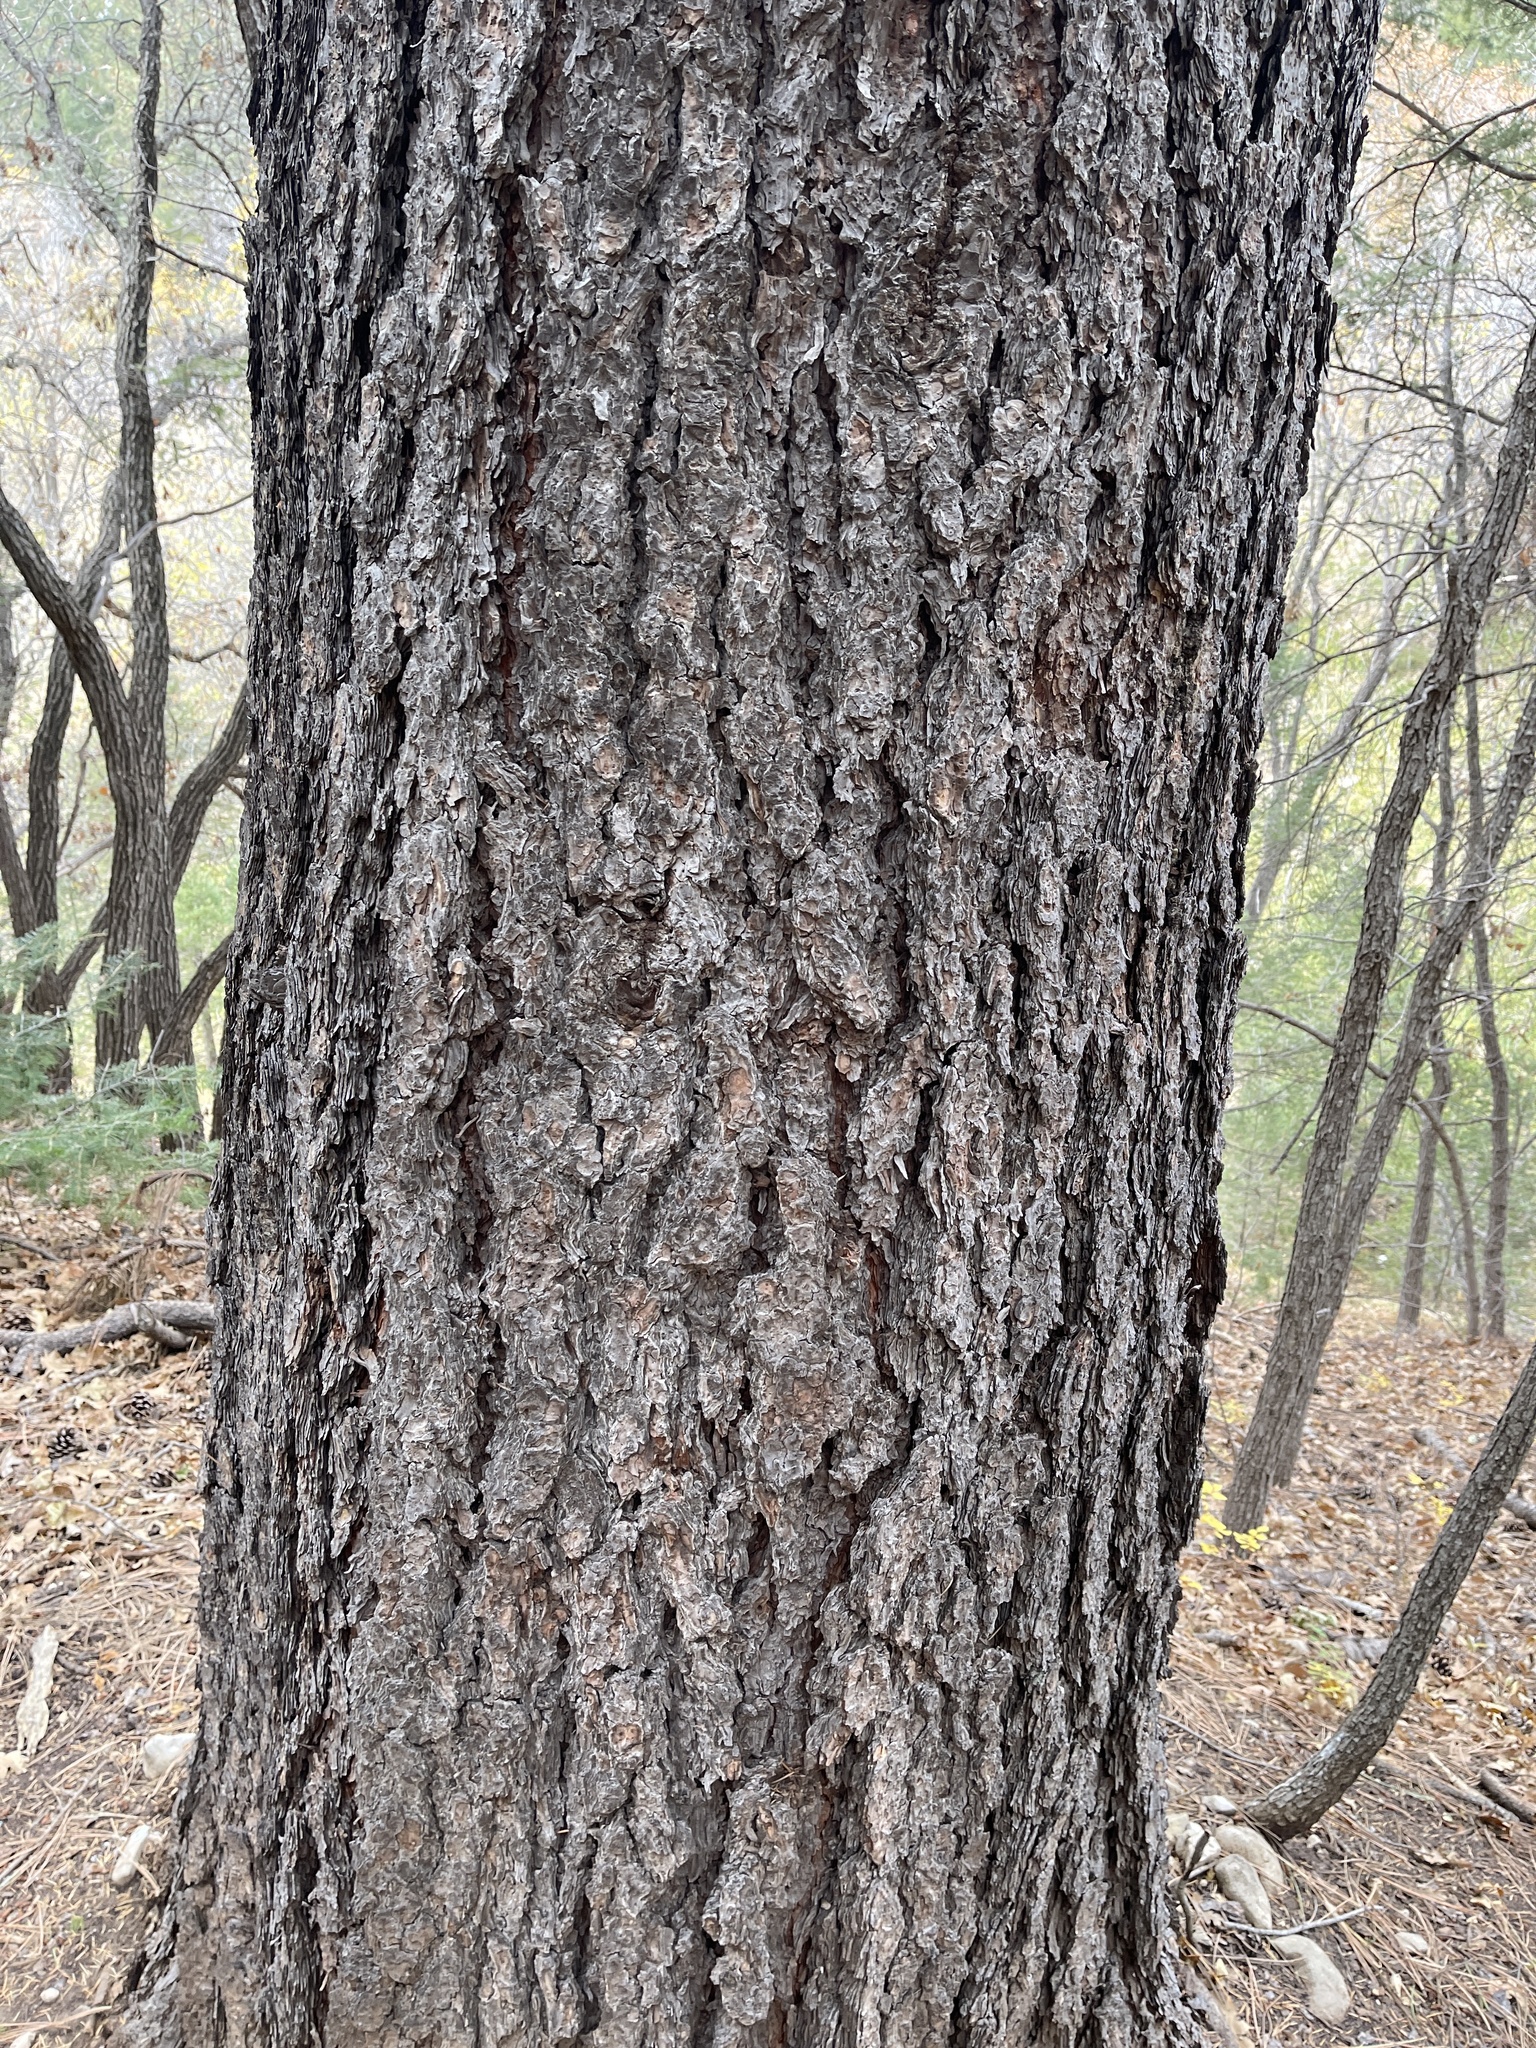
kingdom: Plantae
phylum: Tracheophyta
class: Pinopsida
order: Pinales
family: Pinaceae
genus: Pinus
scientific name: Pinus ponderosa
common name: Western yellow-pine
